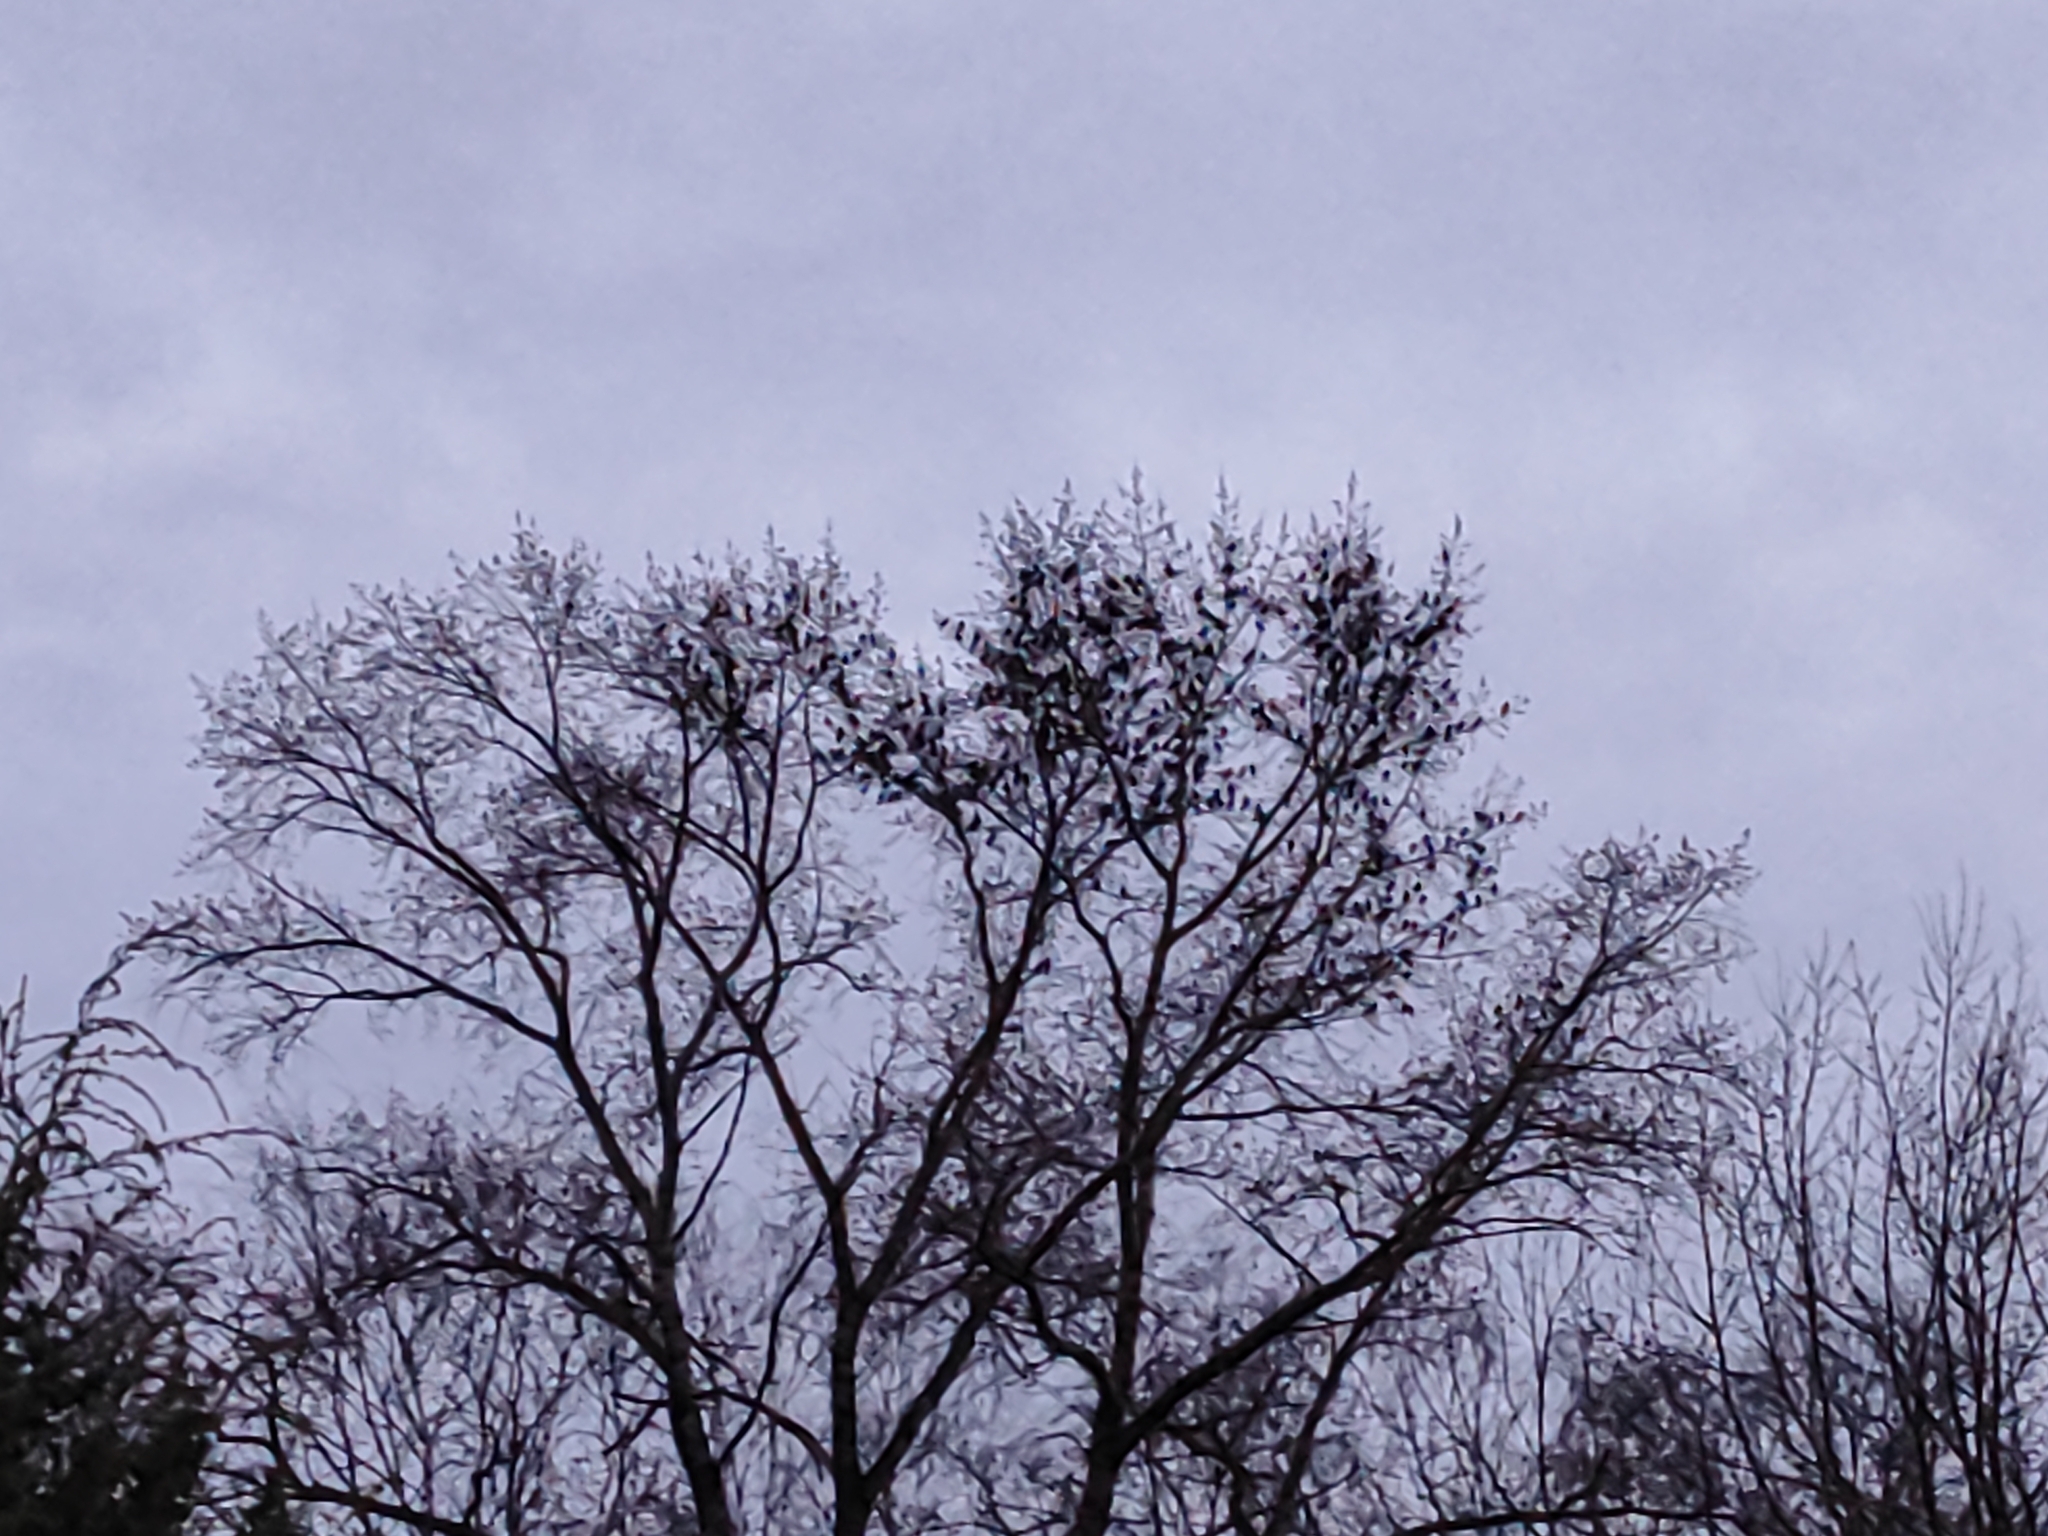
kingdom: Animalia
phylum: Chordata
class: Aves
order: Passeriformes
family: Sturnidae
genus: Sturnus
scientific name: Sturnus vulgaris
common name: Common starling
